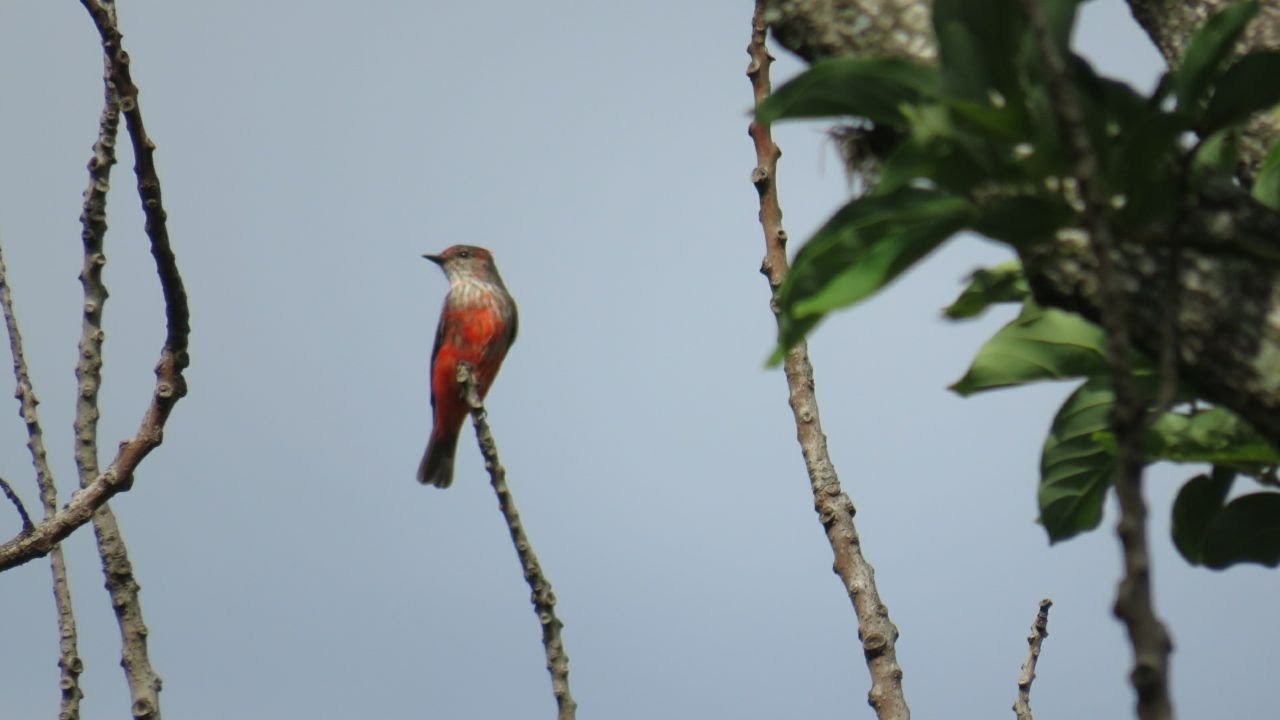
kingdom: Animalia
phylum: Chordata
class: Aves
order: Passeriformes
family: Tyrannidae
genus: Pyrocephalus
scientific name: Pyrocephalus rubinus
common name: Vermilion flycatcher
